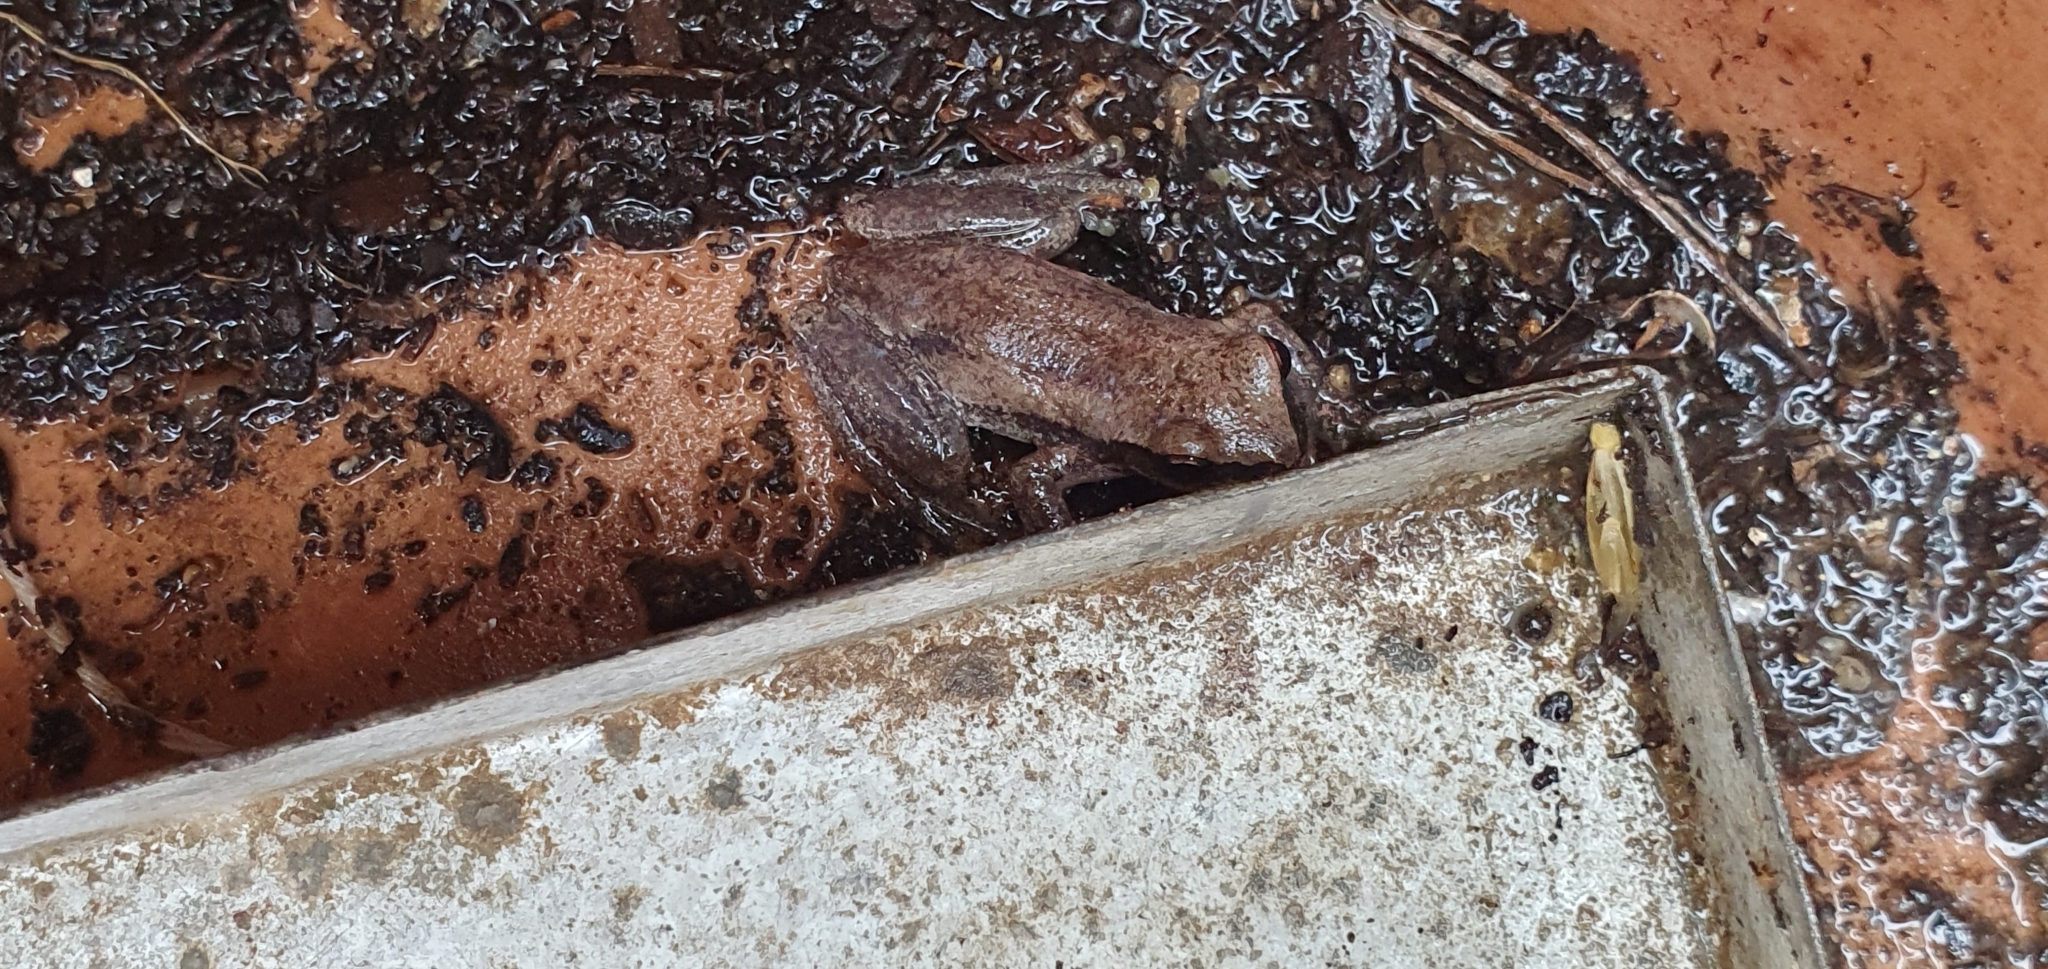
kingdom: Animalia
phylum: Chordata
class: Amphibia
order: Anura
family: Pelodryadidae
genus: Litoria
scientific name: Litoria rubella
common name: Desert tree frog
